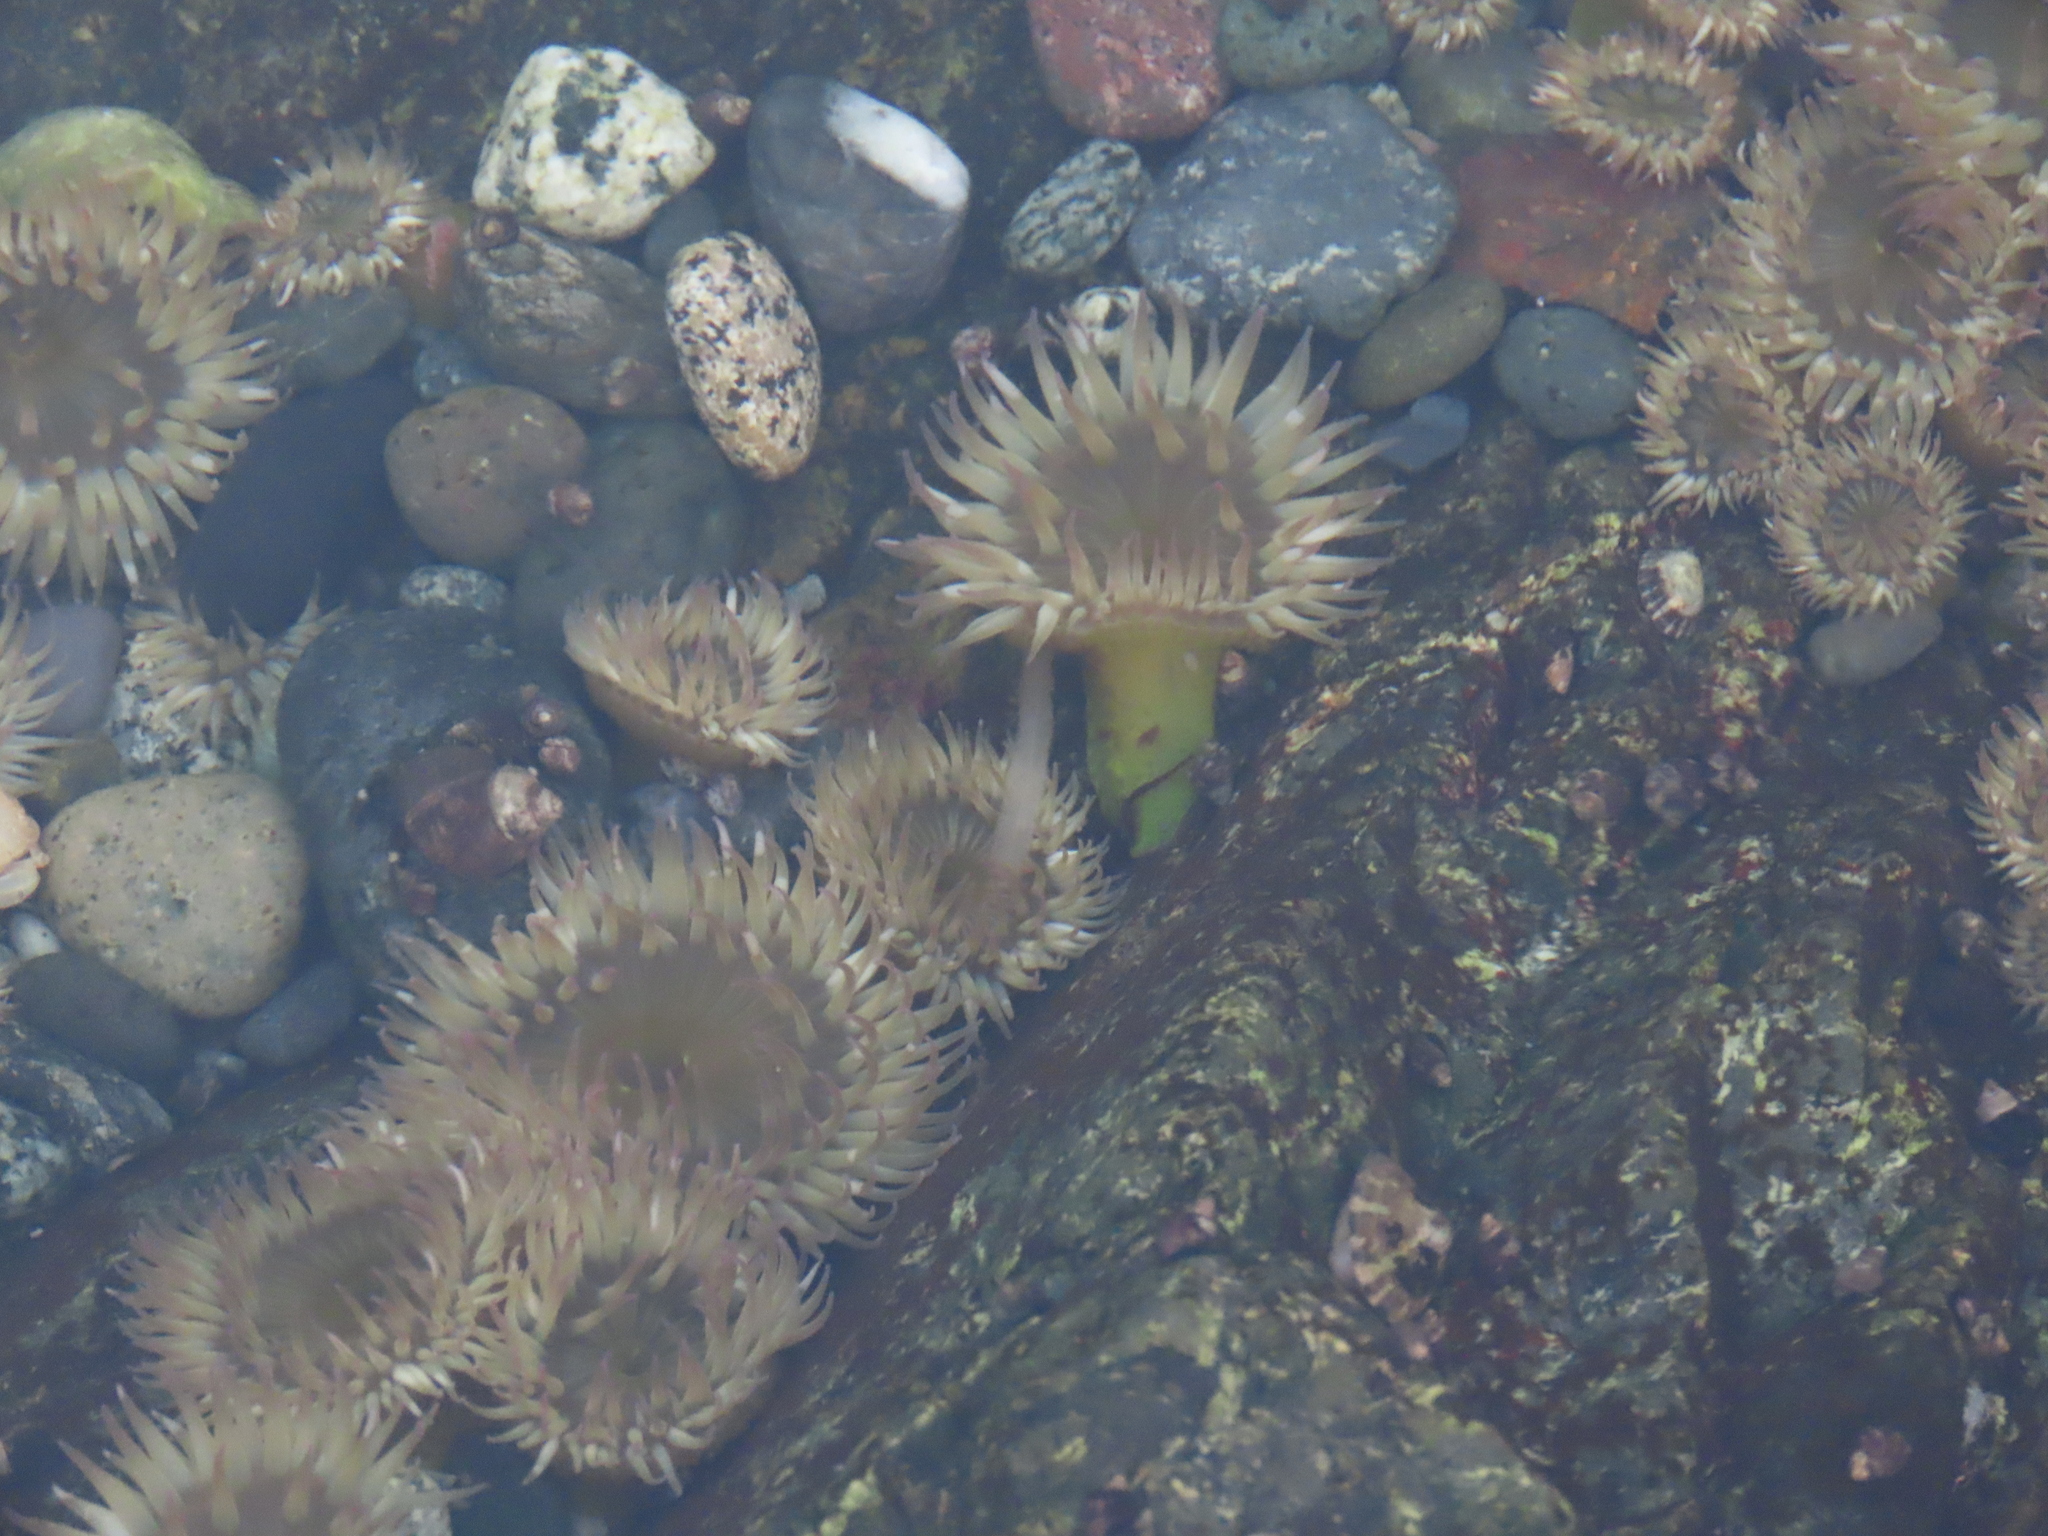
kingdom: Animalia
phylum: Cnidaria
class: Anthozoa
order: Actiniaria
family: Actiniidae
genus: Anthopleura
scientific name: Anthopleura elegantissima
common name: Clonal anemone
